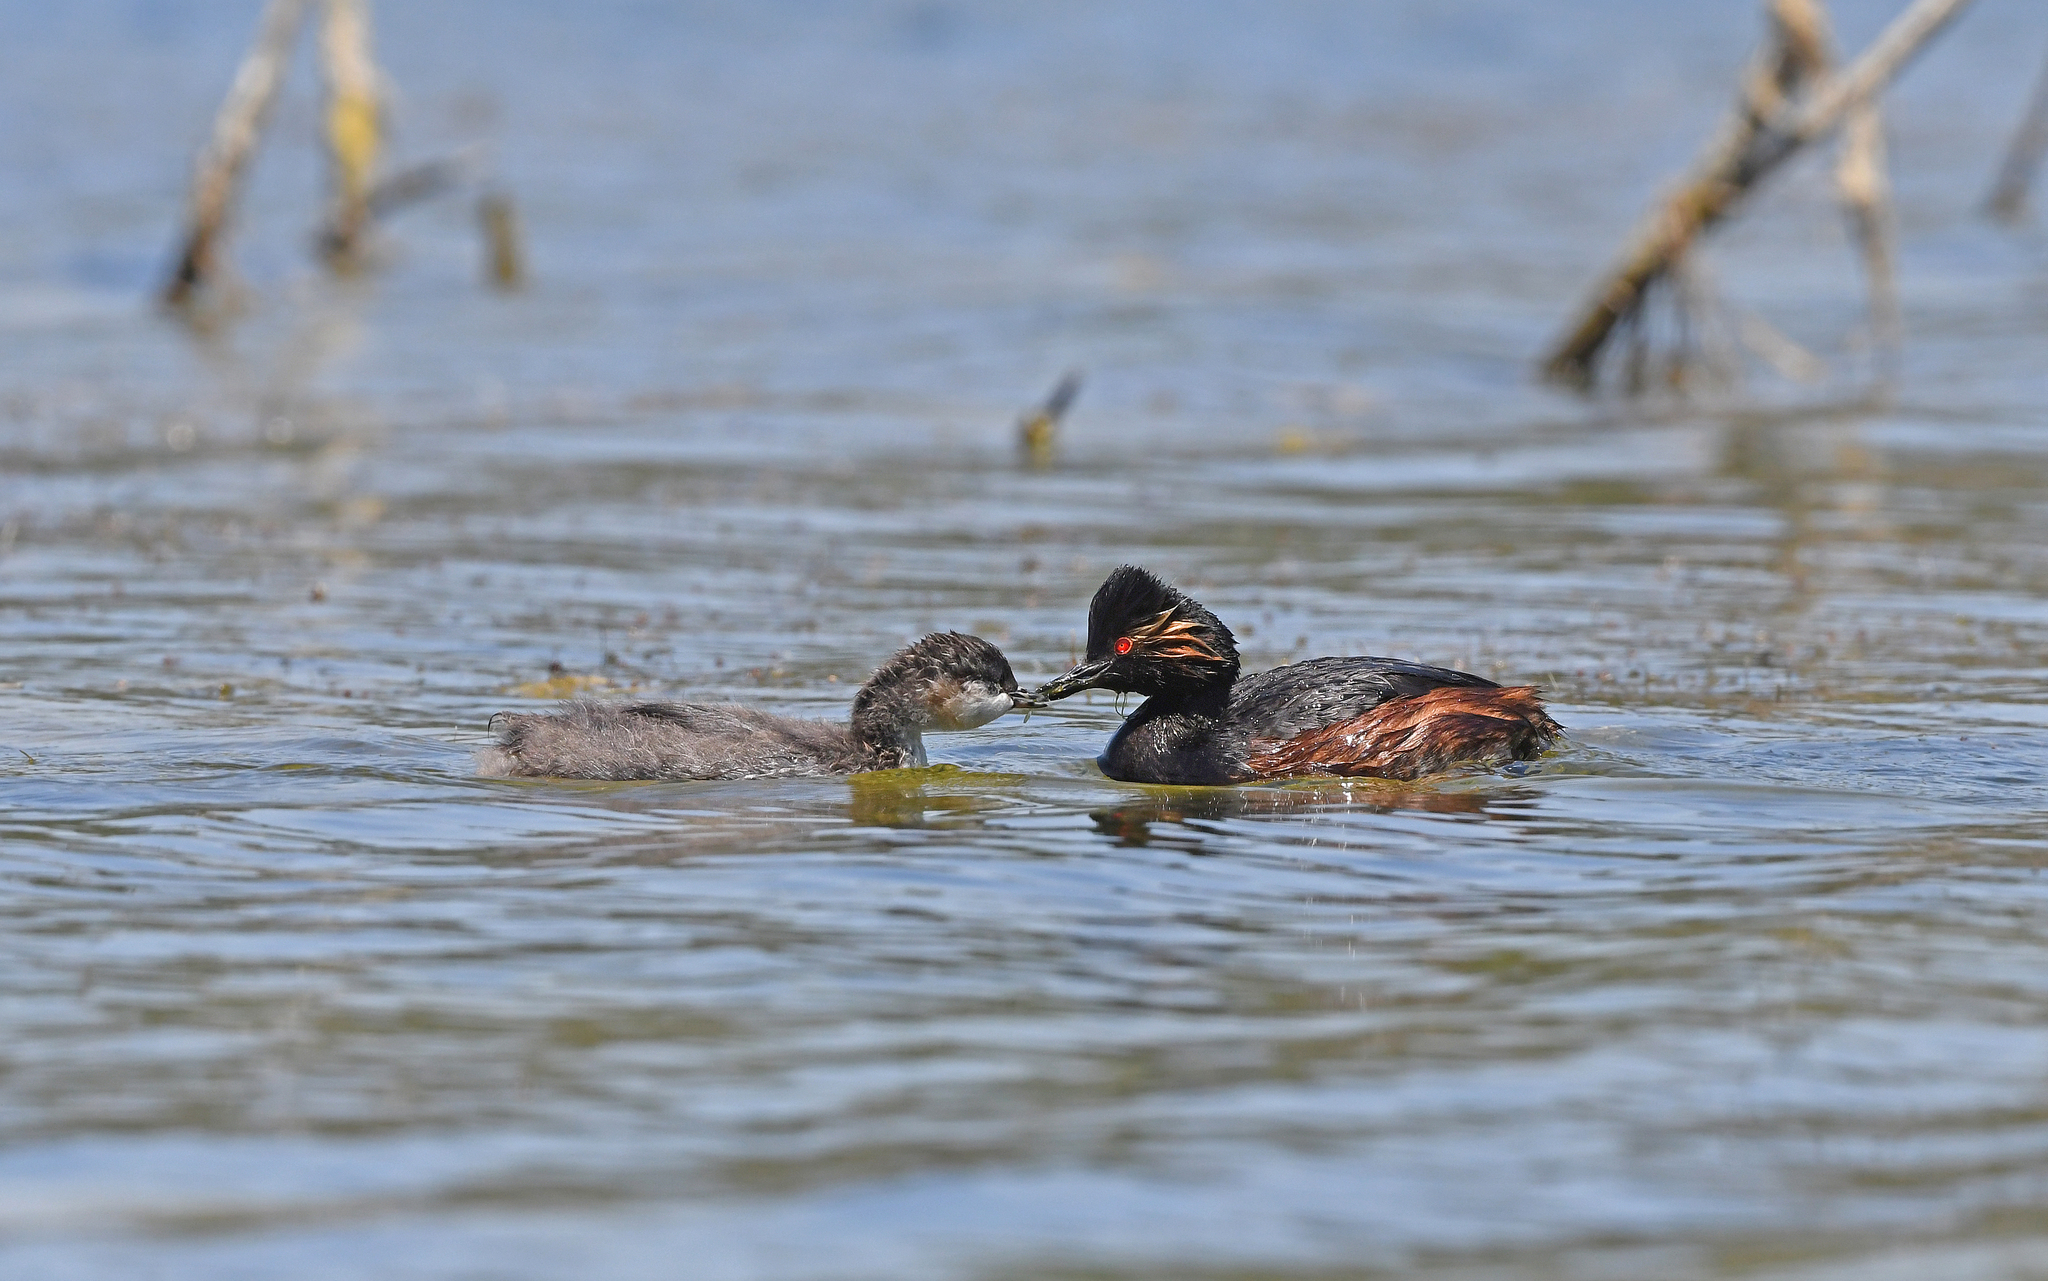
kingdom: Animalia
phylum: Chordata
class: Aves
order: Podicipediformes
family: Podicipedidae
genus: Podiceps
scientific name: Podiceps nigricollis
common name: Black-necked grebe
